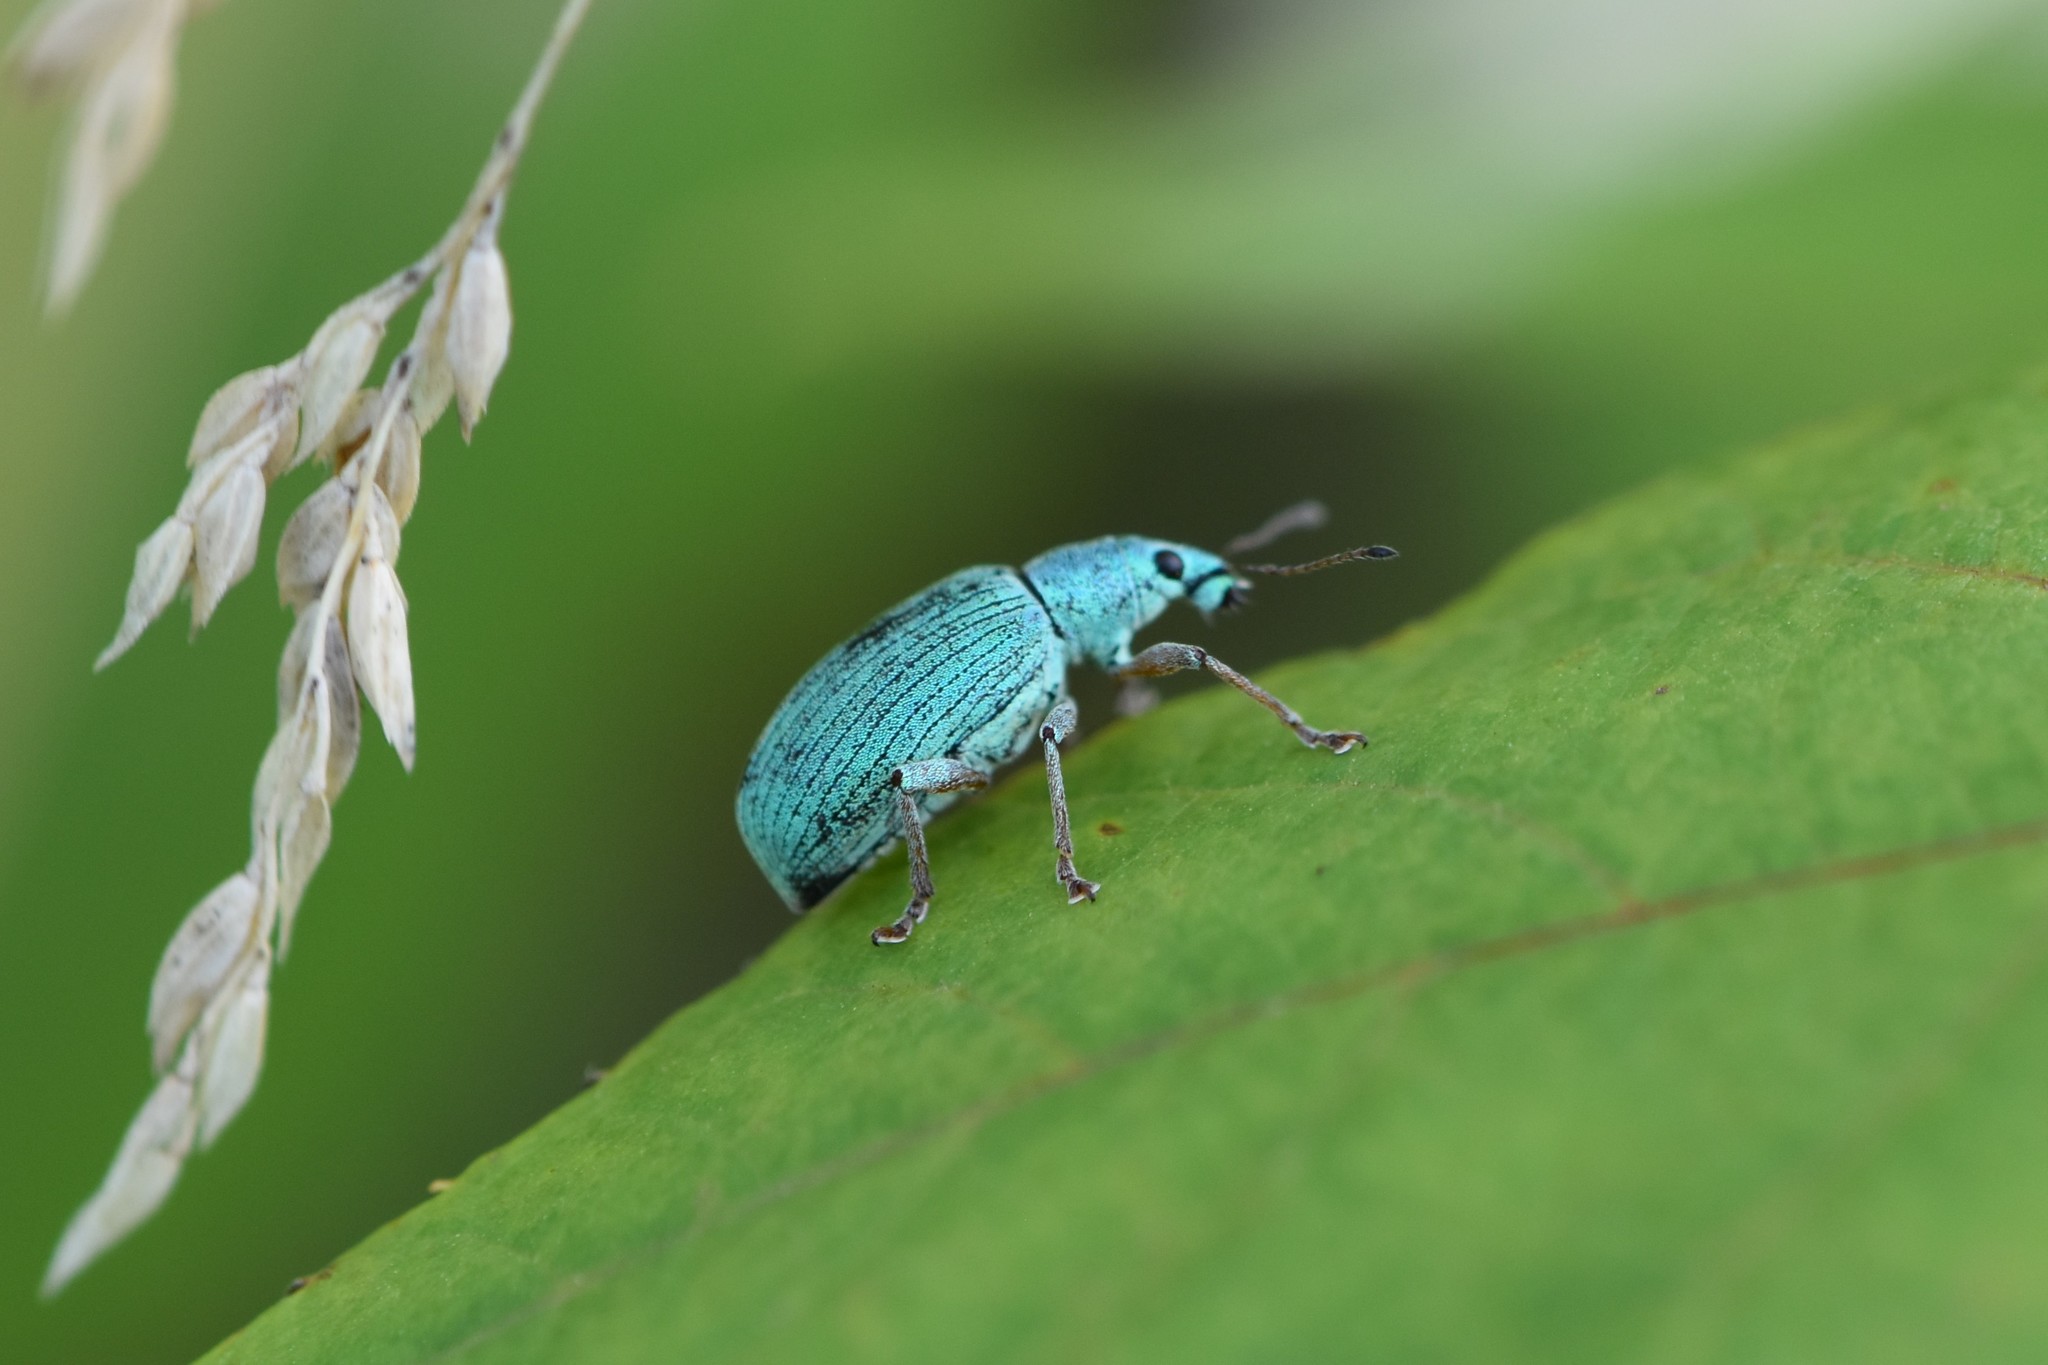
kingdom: Animalia
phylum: Arthropoda
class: Insecta
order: Coleoptera
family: Curculionidae
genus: Polydrusus
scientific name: Polydrusus formosus
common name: Weevil
